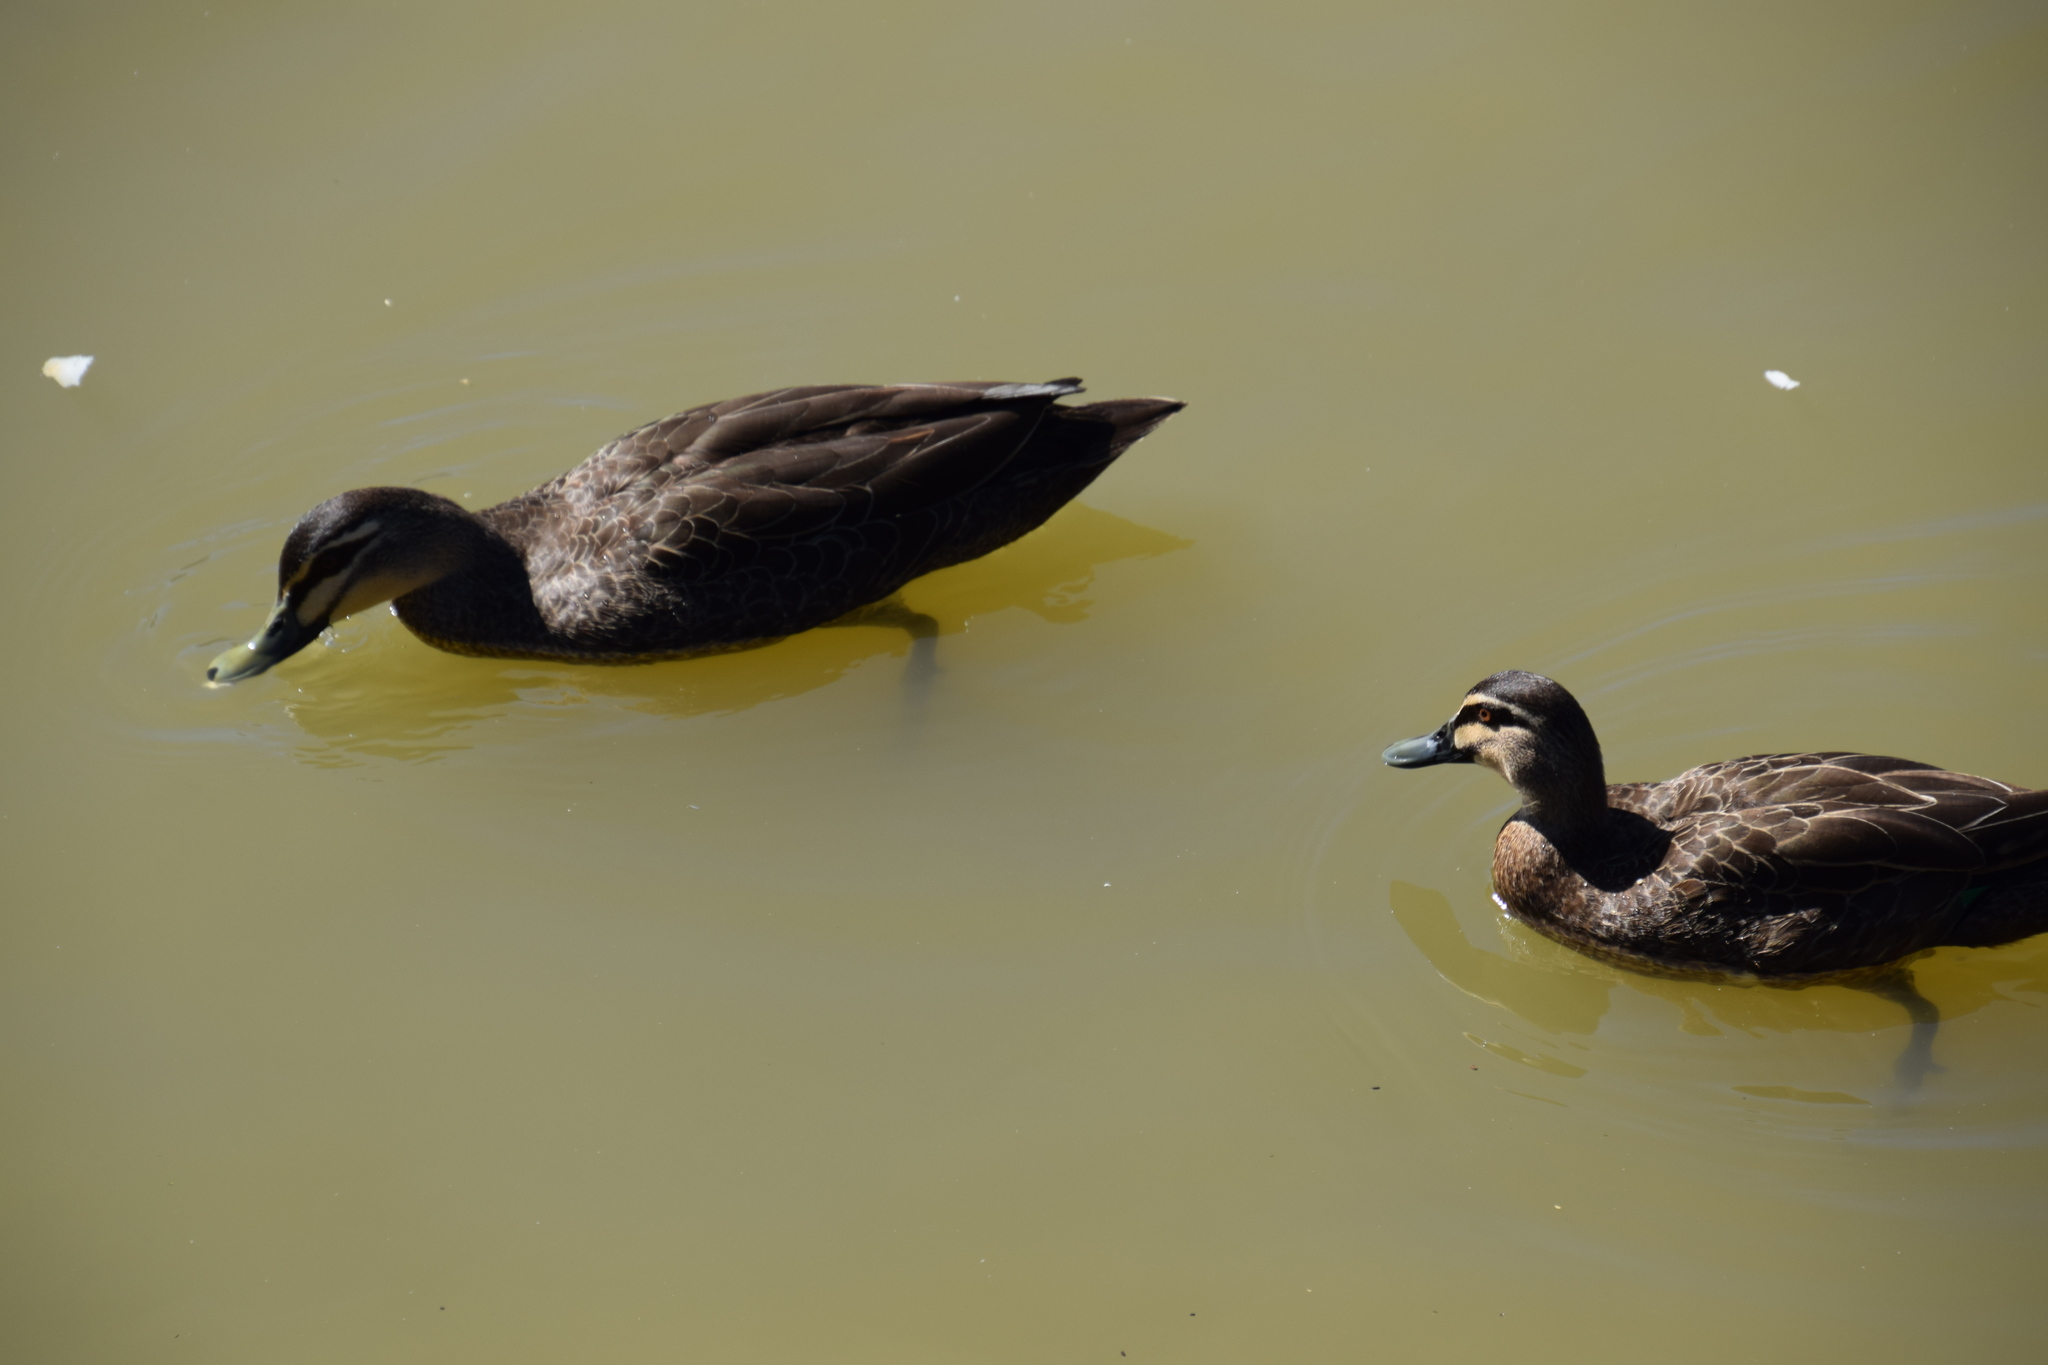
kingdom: Animalia
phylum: Chordata
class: Aves
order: Anseriformes
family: Anatidae
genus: Anas
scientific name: Anas superciliosa
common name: Pacific black duck
